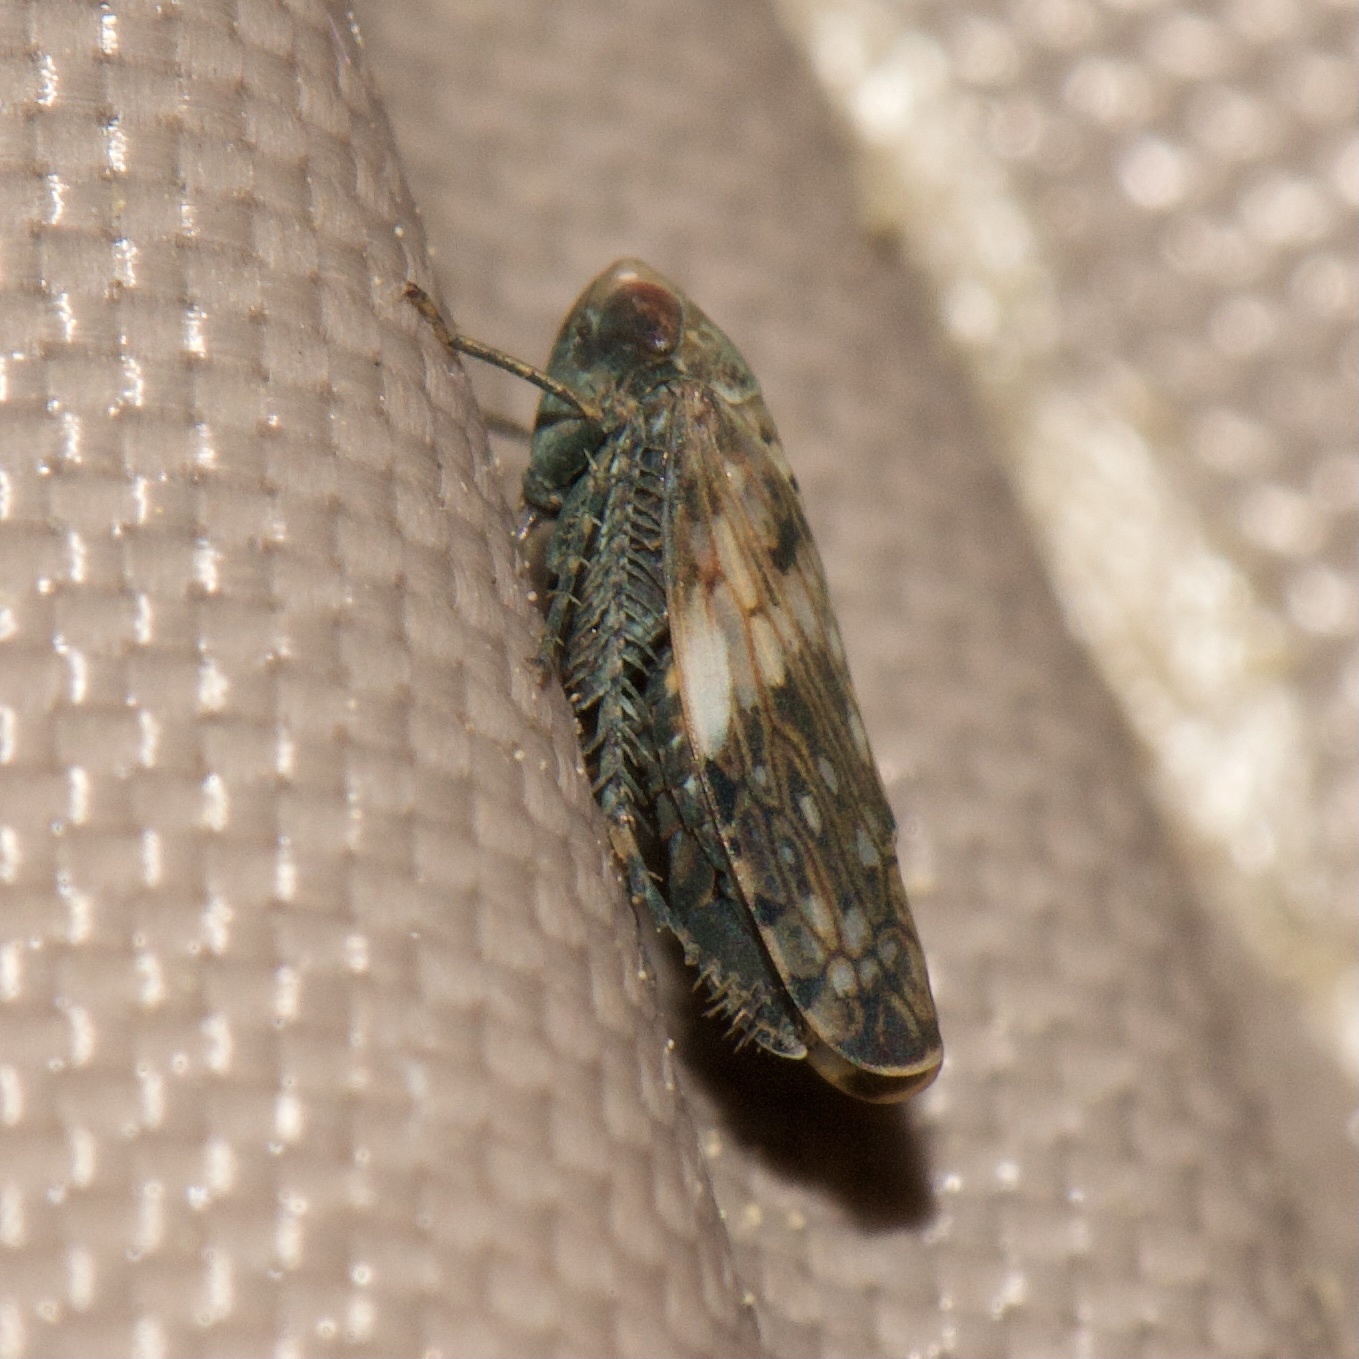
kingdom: Animalia
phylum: Arthropoda
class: Insecta
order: Hemiptera
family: Cicadellidae
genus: Menosoma
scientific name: Menosoma cinctum
